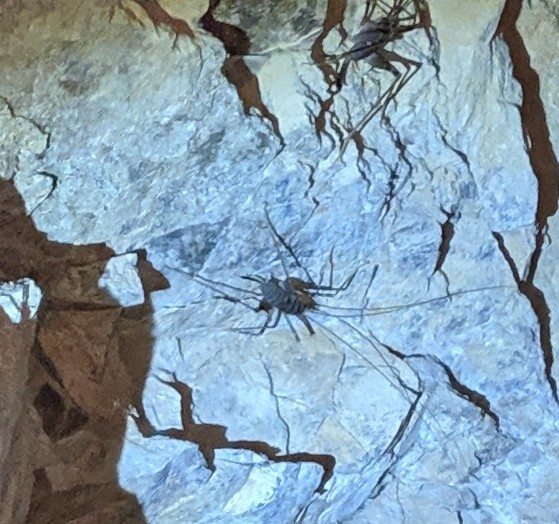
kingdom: Animalia
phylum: Arthropoda
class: Insecta
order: Orthoptera
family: Rhaphidophoridae
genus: Pachyrhamma
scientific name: Pachyrhamma edwardsii
